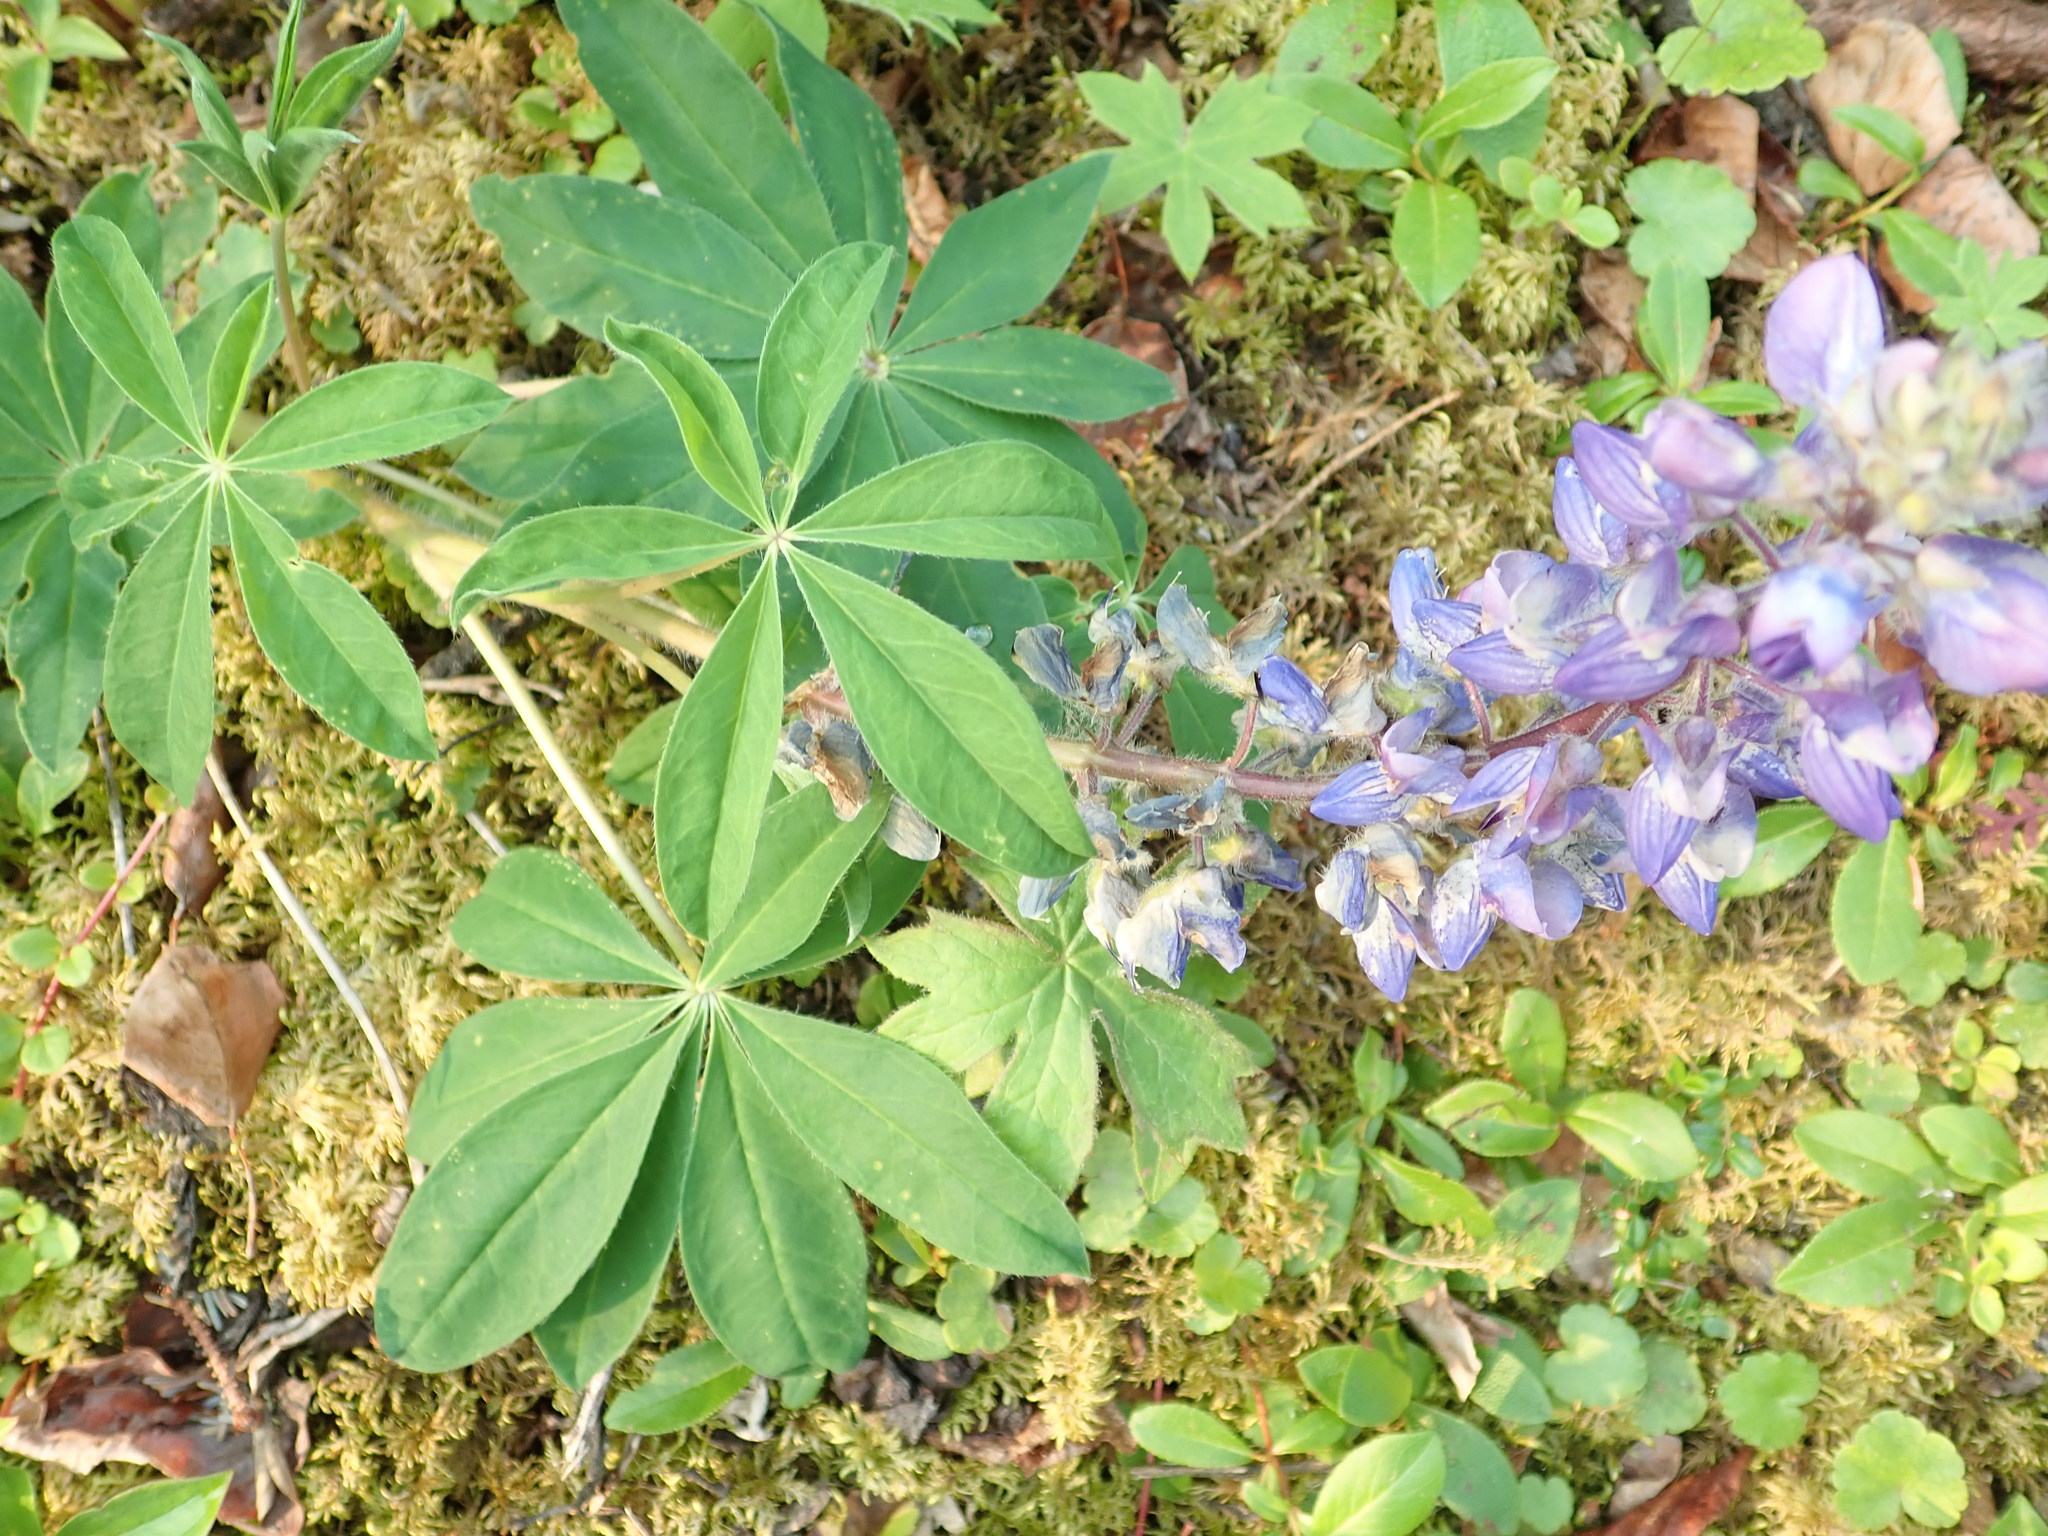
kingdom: Plantae
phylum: Tracheophyta
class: Magnoliopsida
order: Fabales
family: Fabaceae
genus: Lupinus
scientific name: Lupinus arcticus
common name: Arctic lupine
